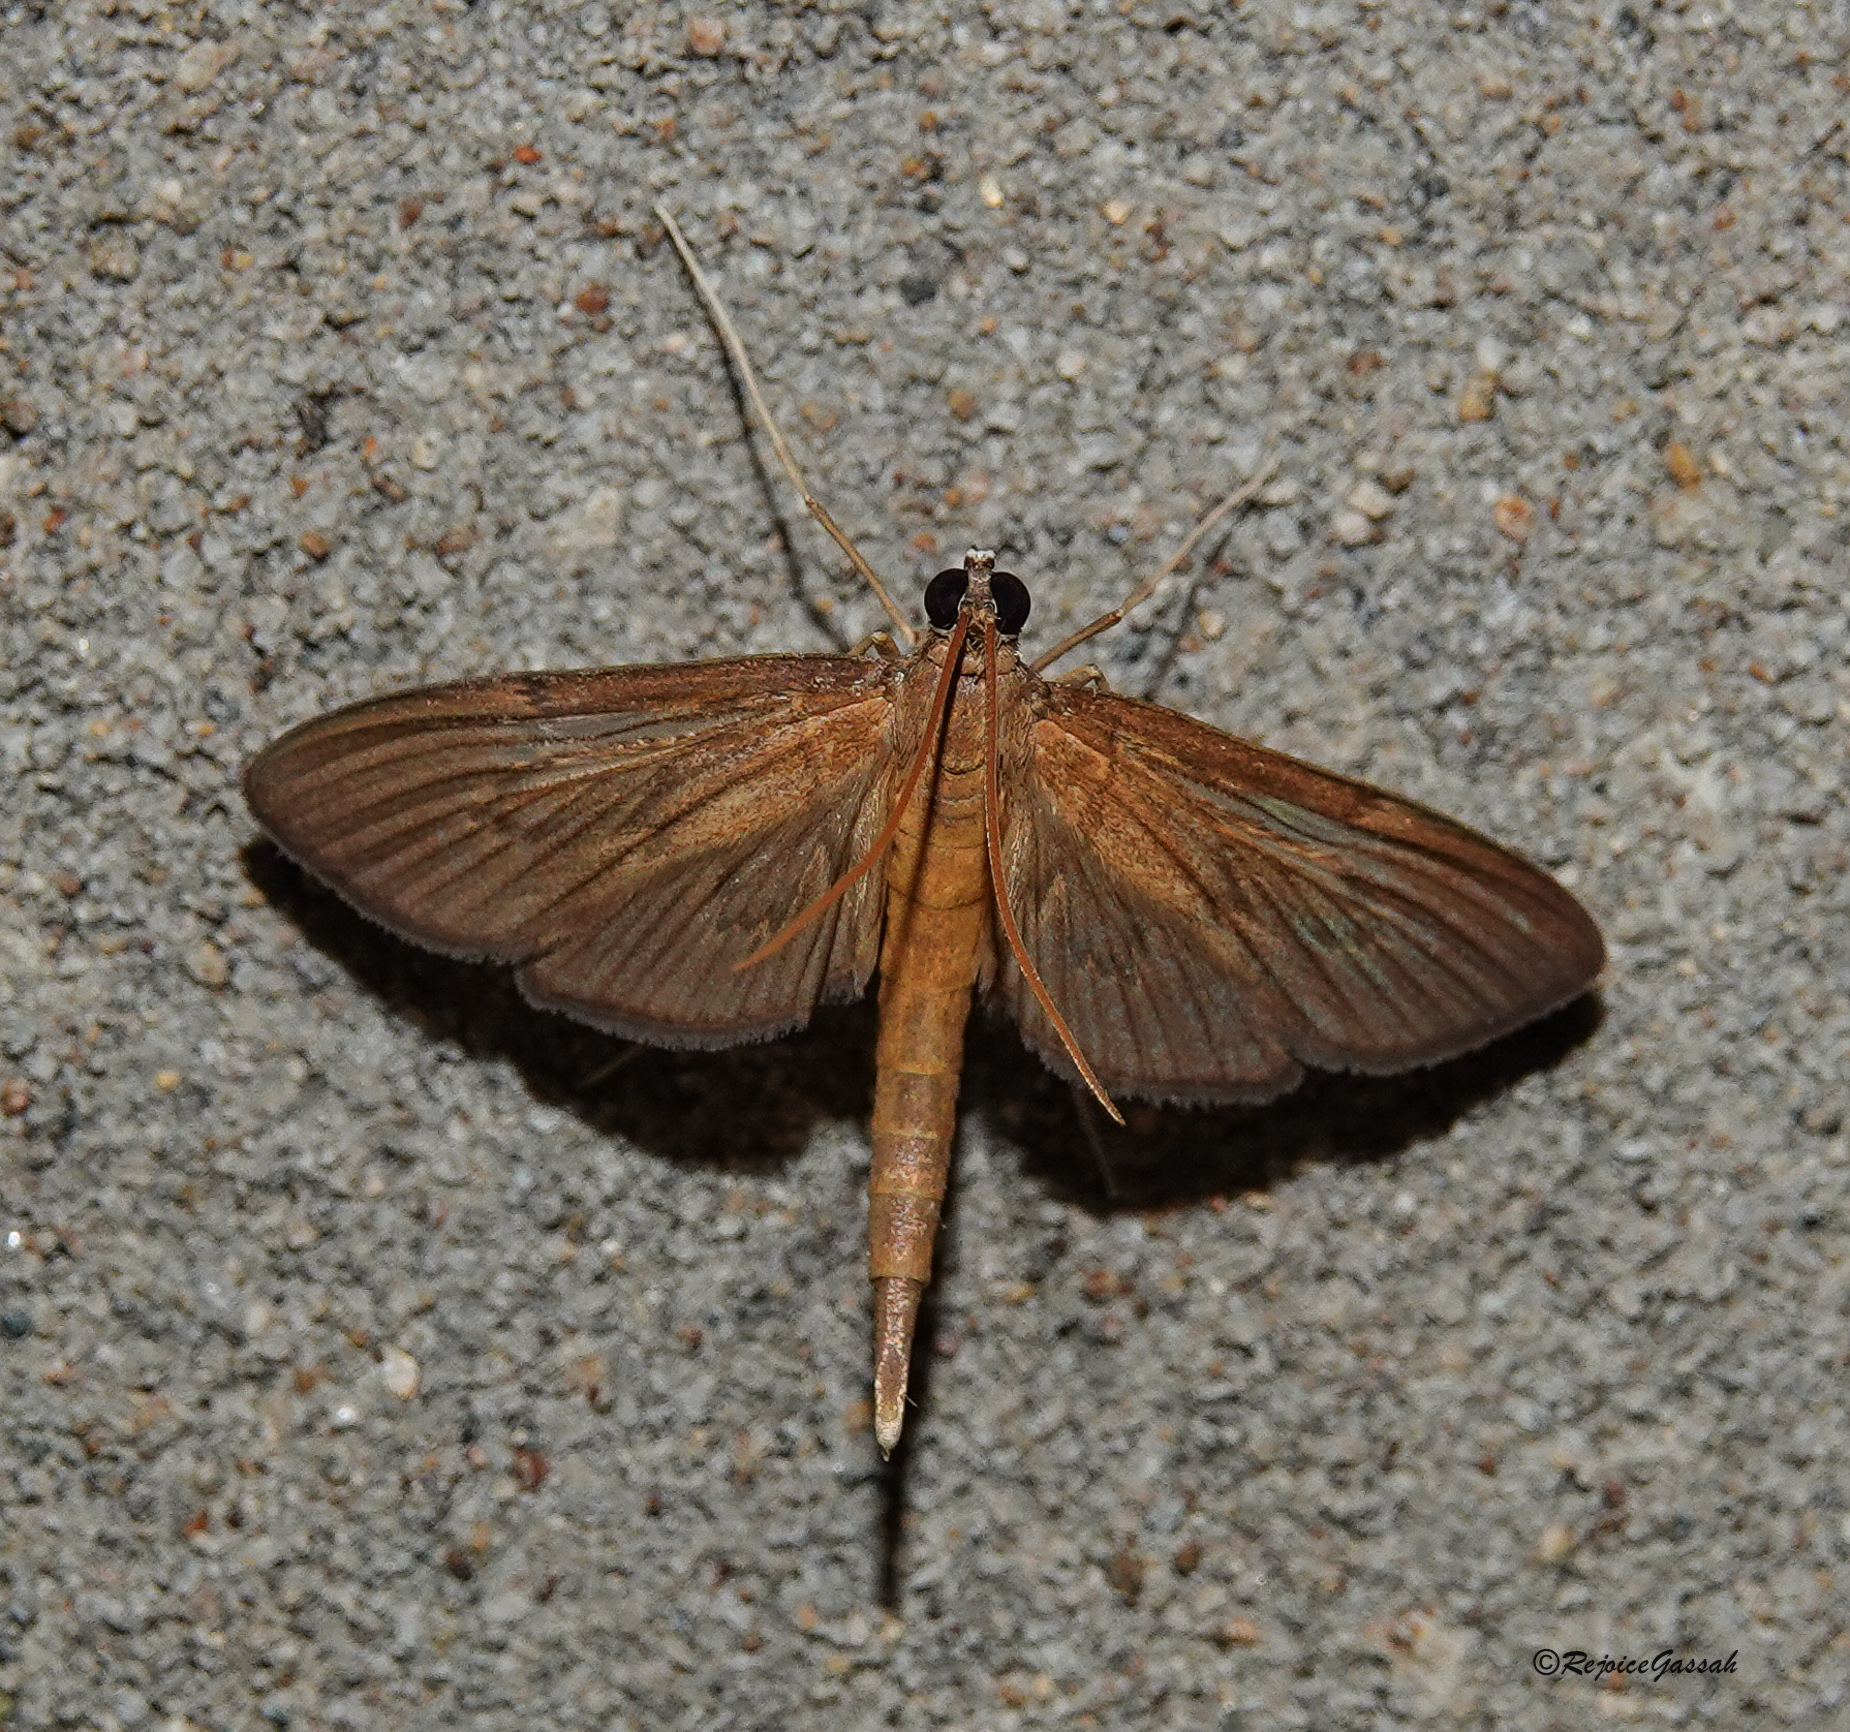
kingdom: Animalia
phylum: Arthropoda
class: Insecta
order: Lepidoptera
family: Crambidae
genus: Hymenoptychis
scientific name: Hymenoptychis sordida
